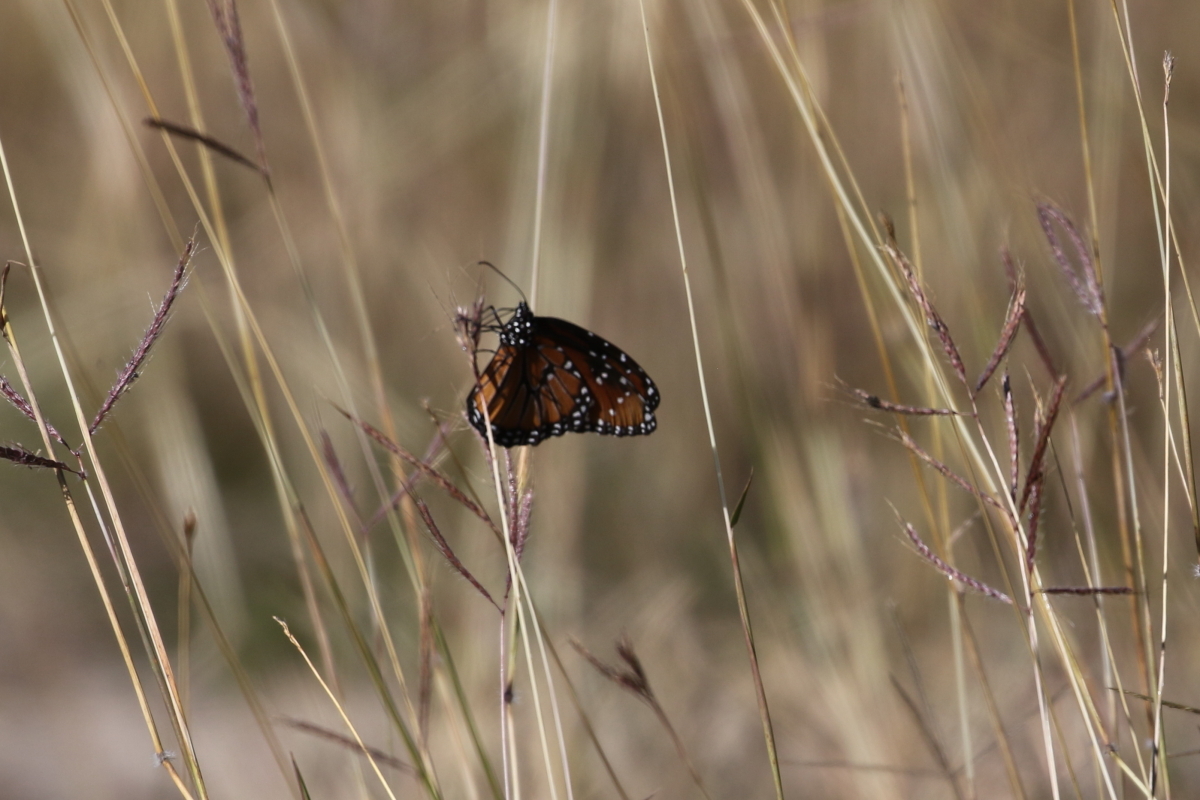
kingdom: Animalia
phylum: Arthropoda
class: Insecta
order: Lepidoptera
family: Nymphalidae
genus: Danaus
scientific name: Danaus gilippus
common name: Queen
